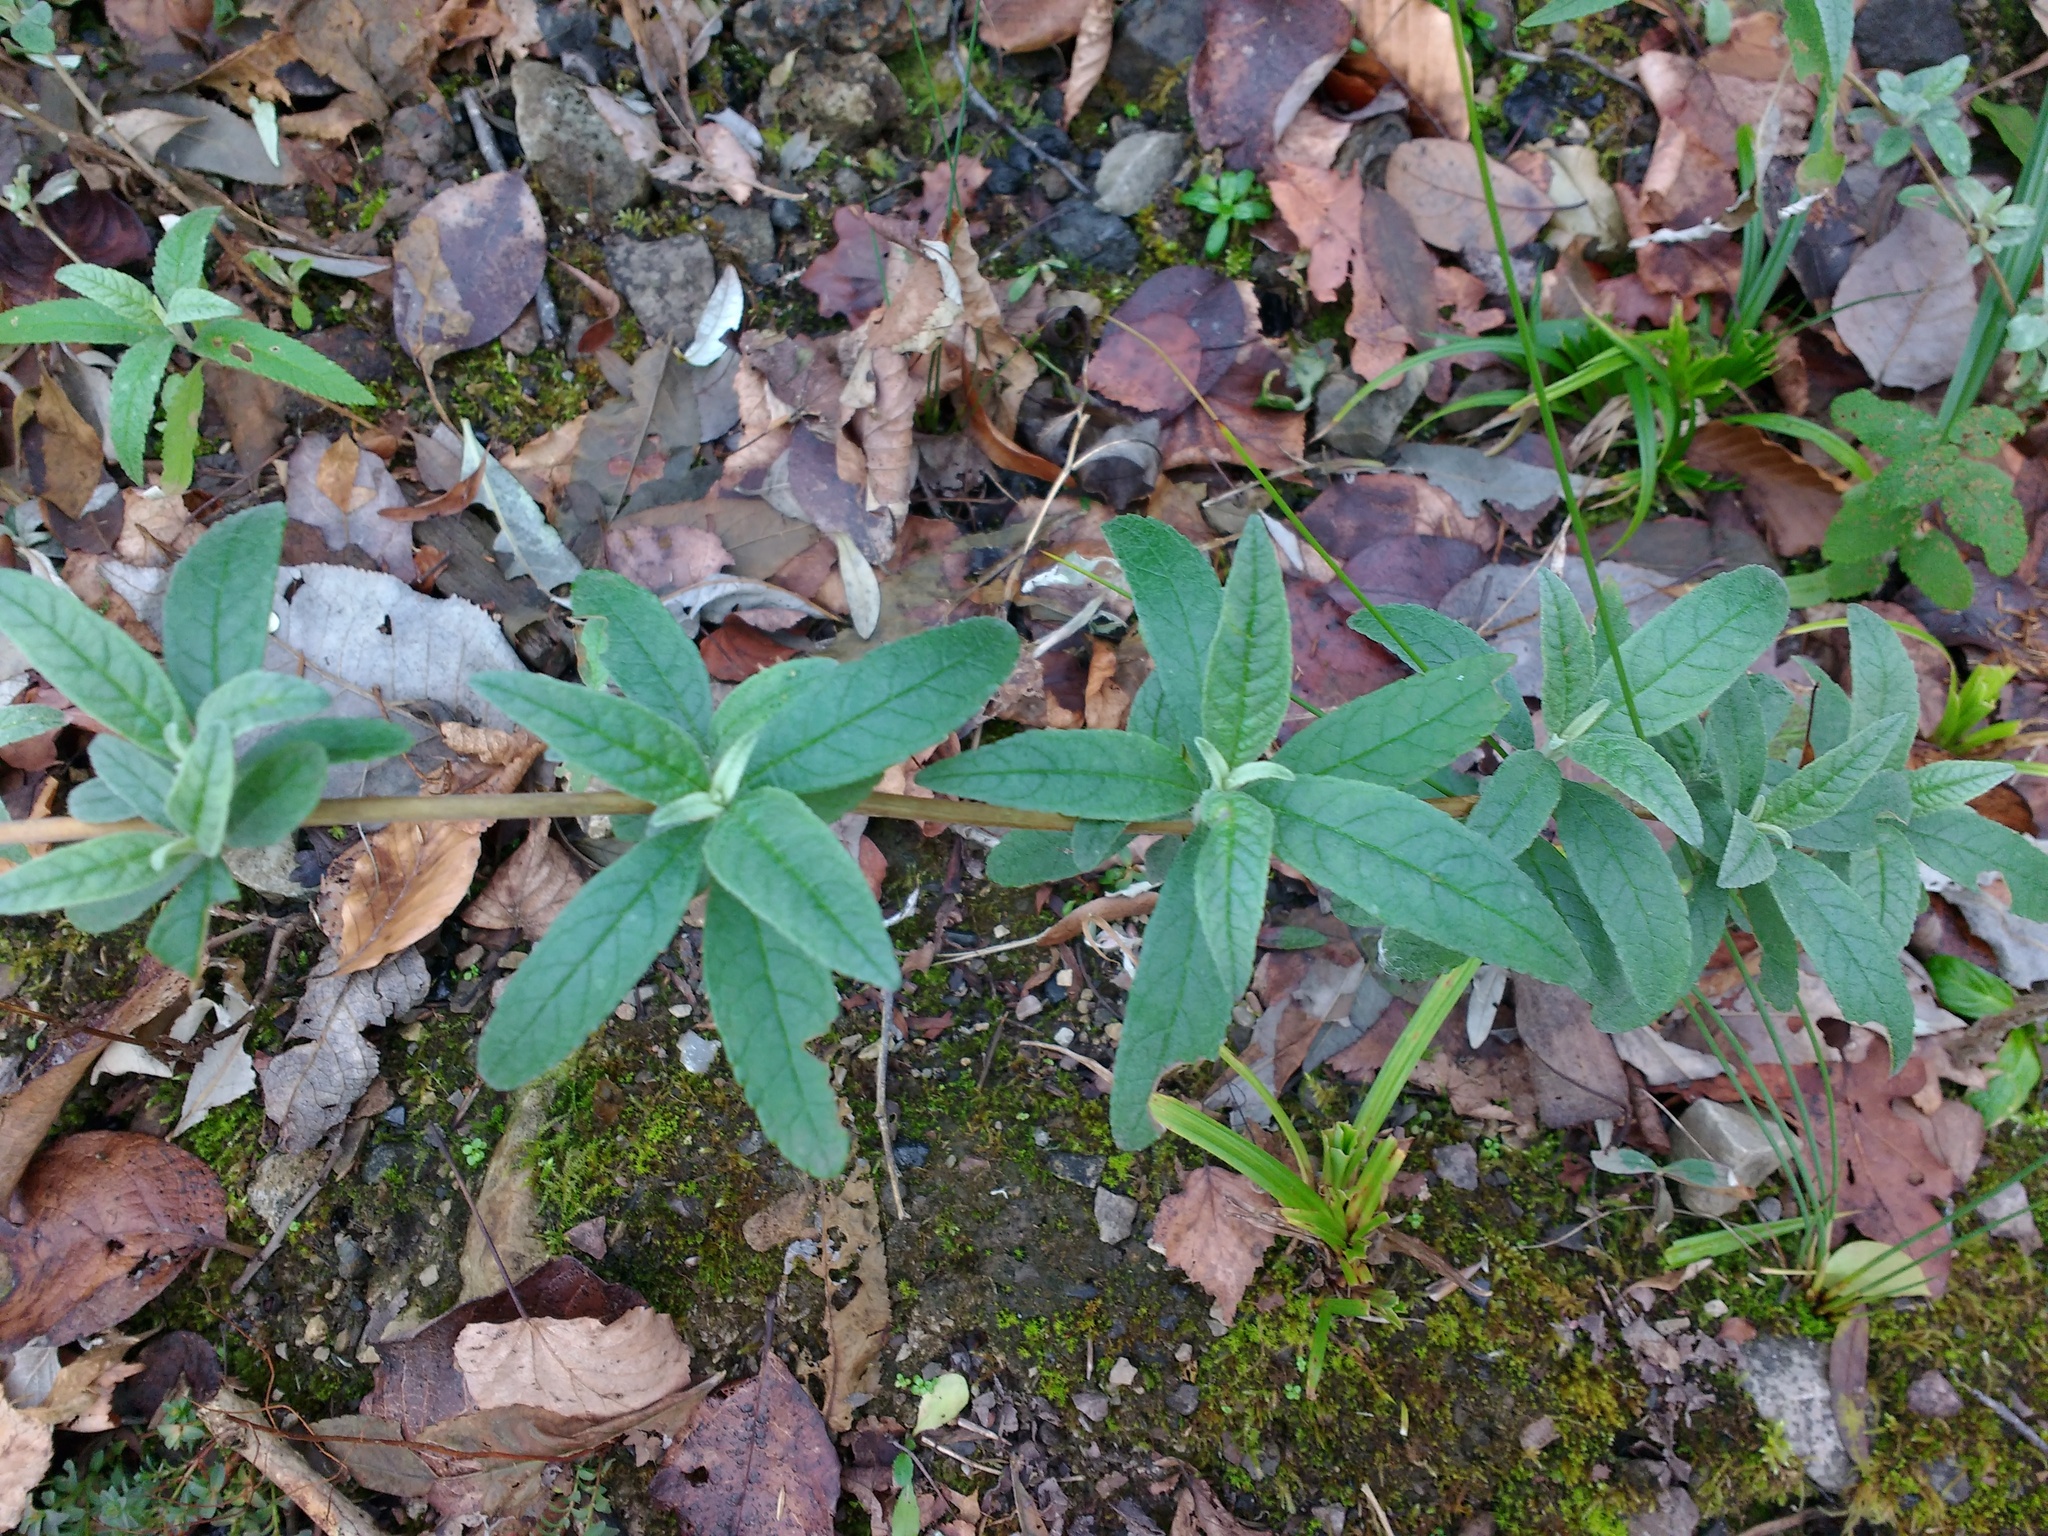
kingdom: Plantae
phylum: Tracheophyta
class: Magnoliopsida
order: Lamiales
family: Scrophulariaceae
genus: Buddleja
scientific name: Buddleja davidii
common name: Butterfly-bush
